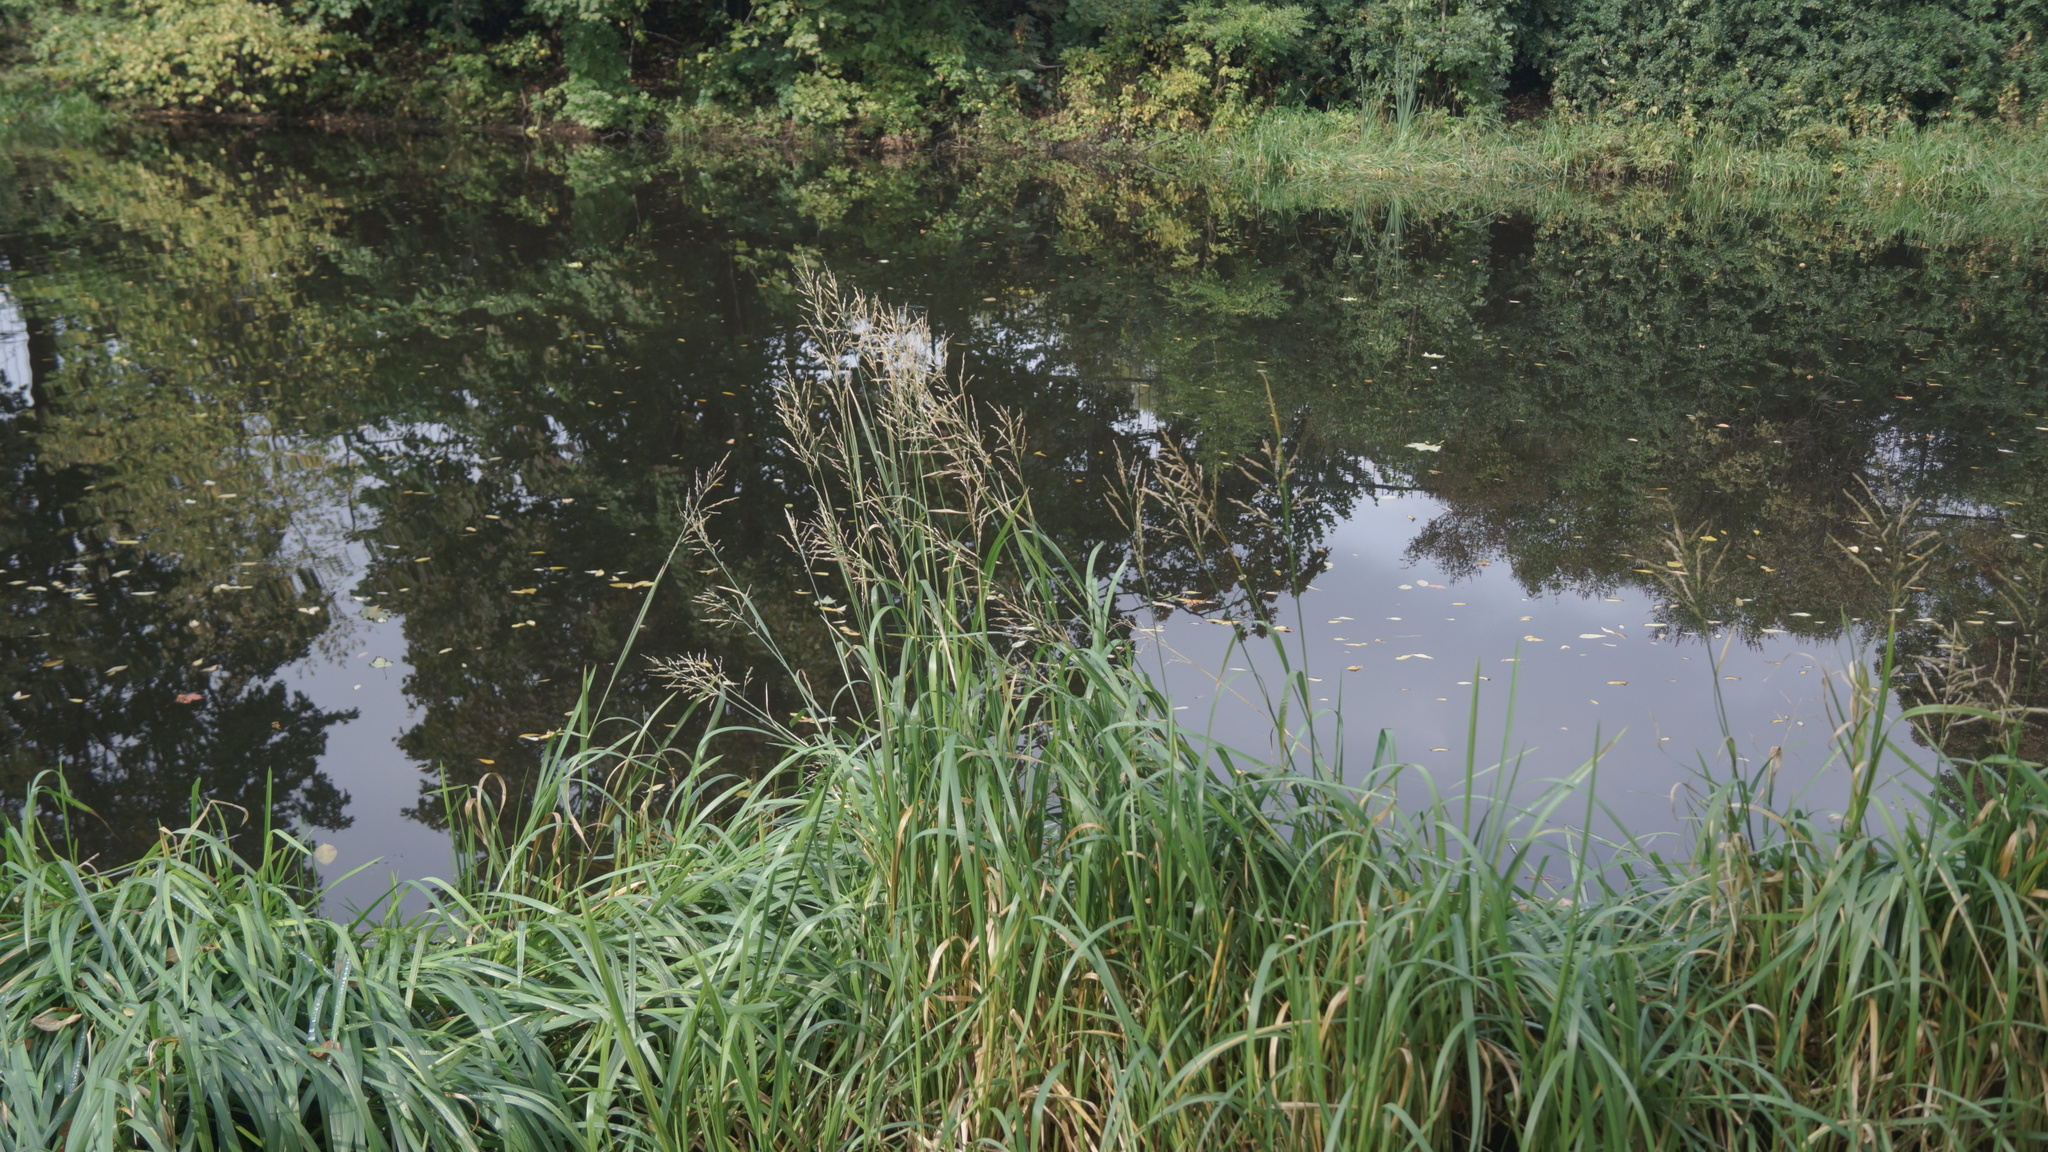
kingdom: Plantae
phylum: Tracheophyta
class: Liliopsida
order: Poales
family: Poaceae
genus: Glyceria
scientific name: Glyceria maxima
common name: Reed mannagrass
